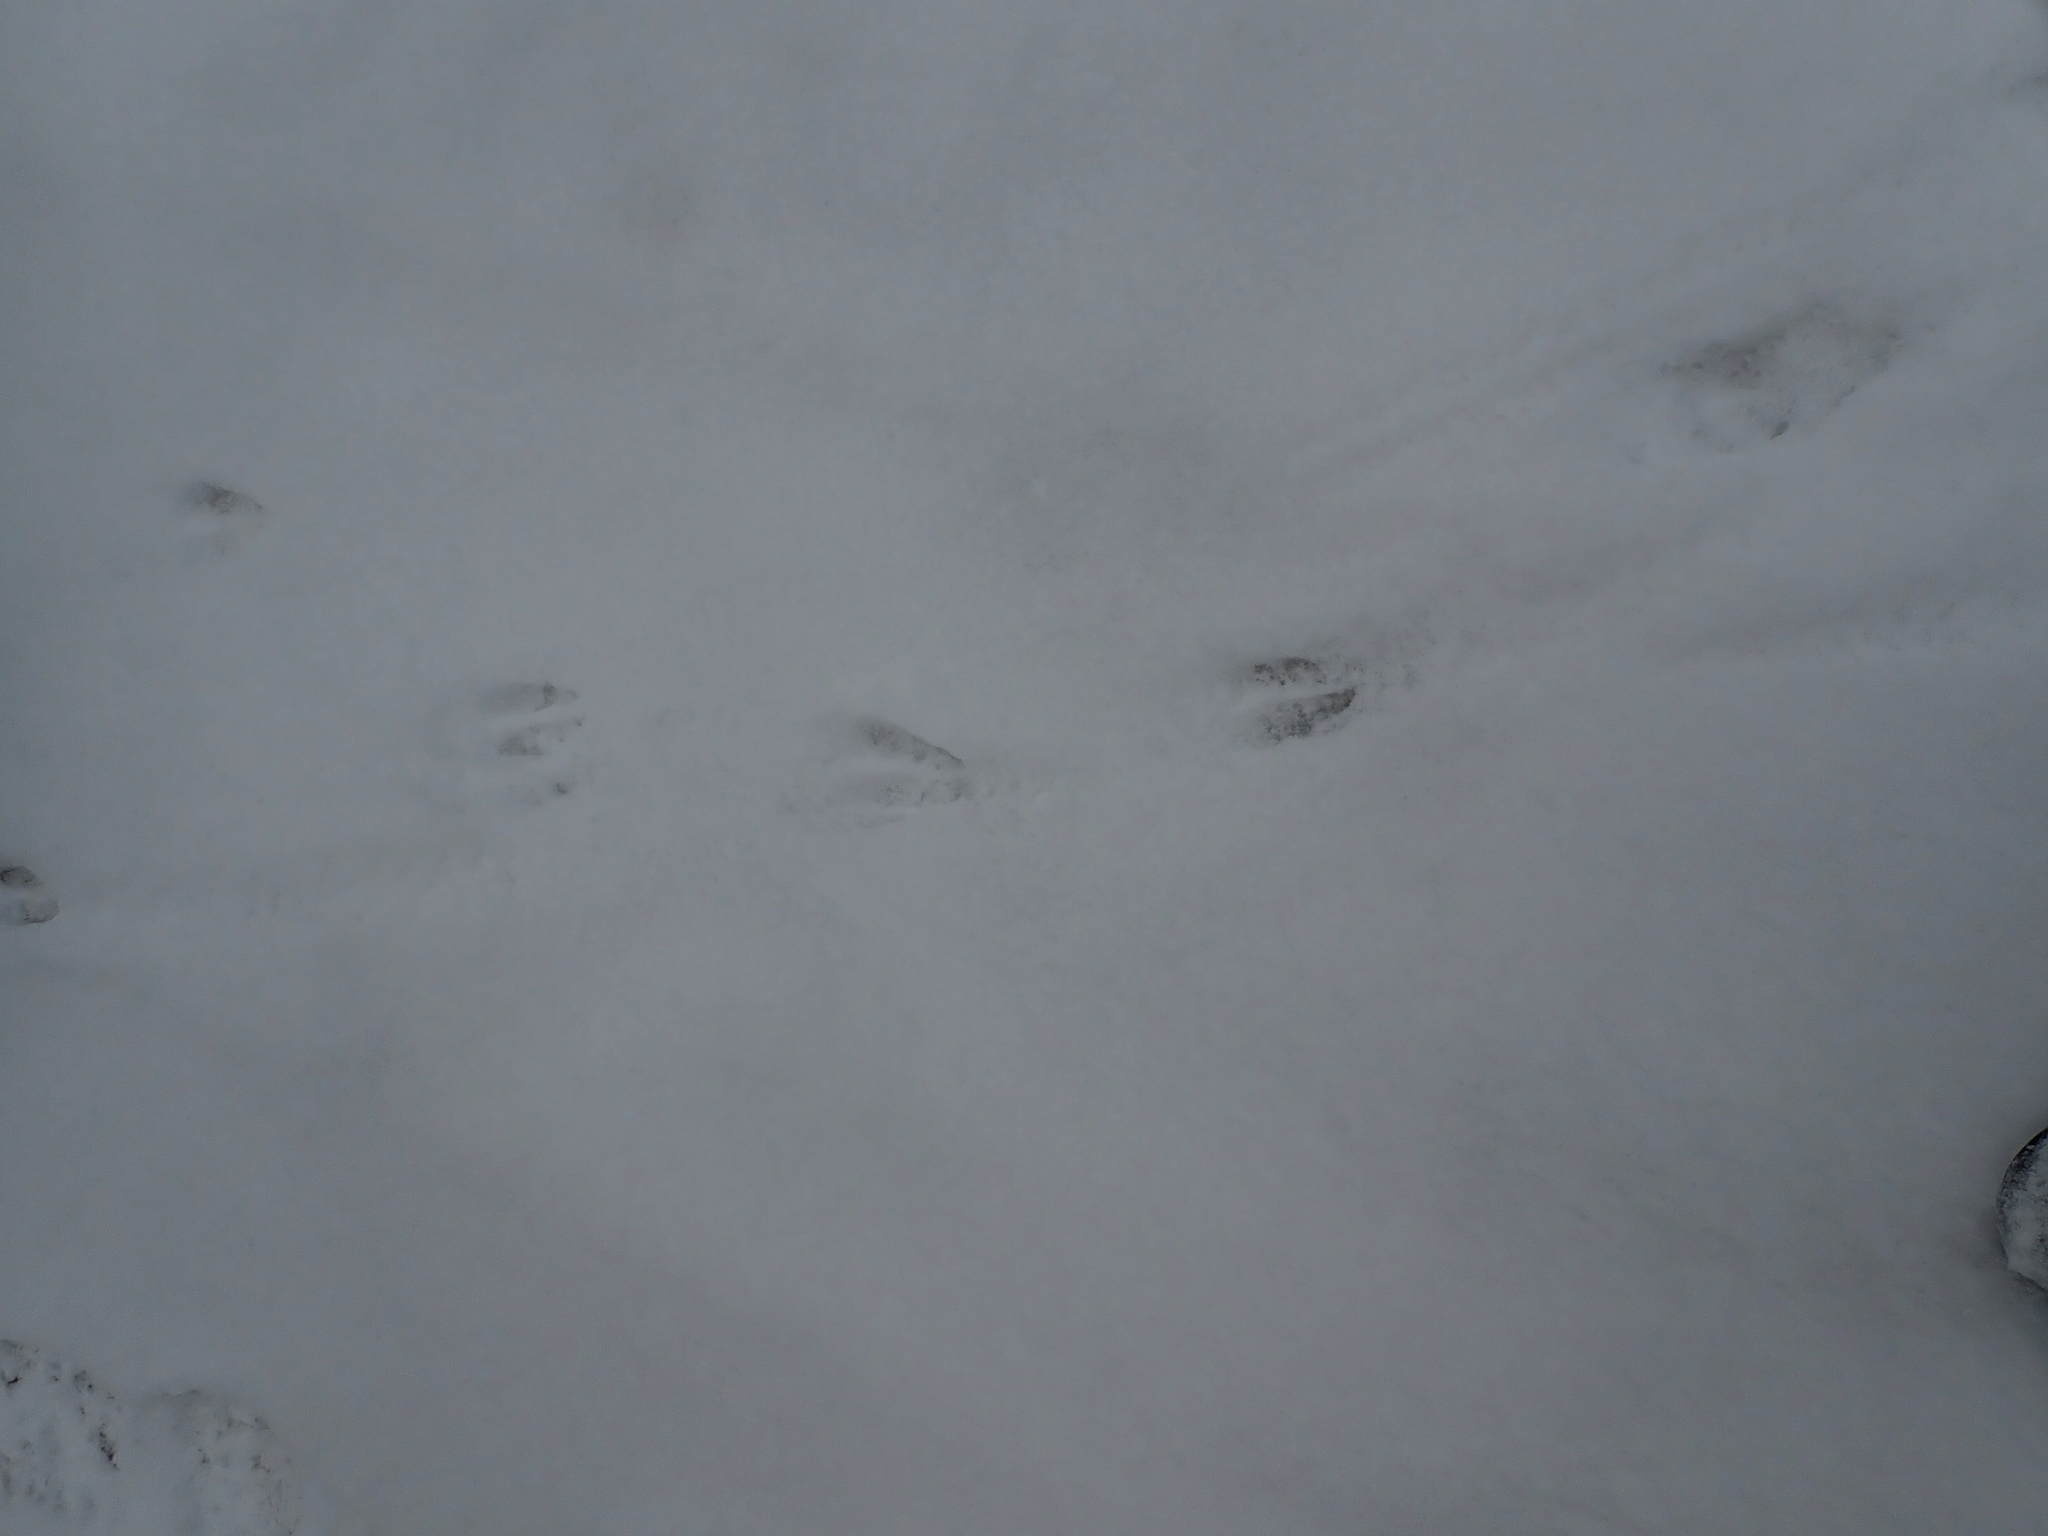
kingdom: Animalia
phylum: Chordata
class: Mammalia
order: Artiodactyla
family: Cervidae
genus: Odocoileus
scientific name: Odocoileus virginianus
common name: White-tailed deer
